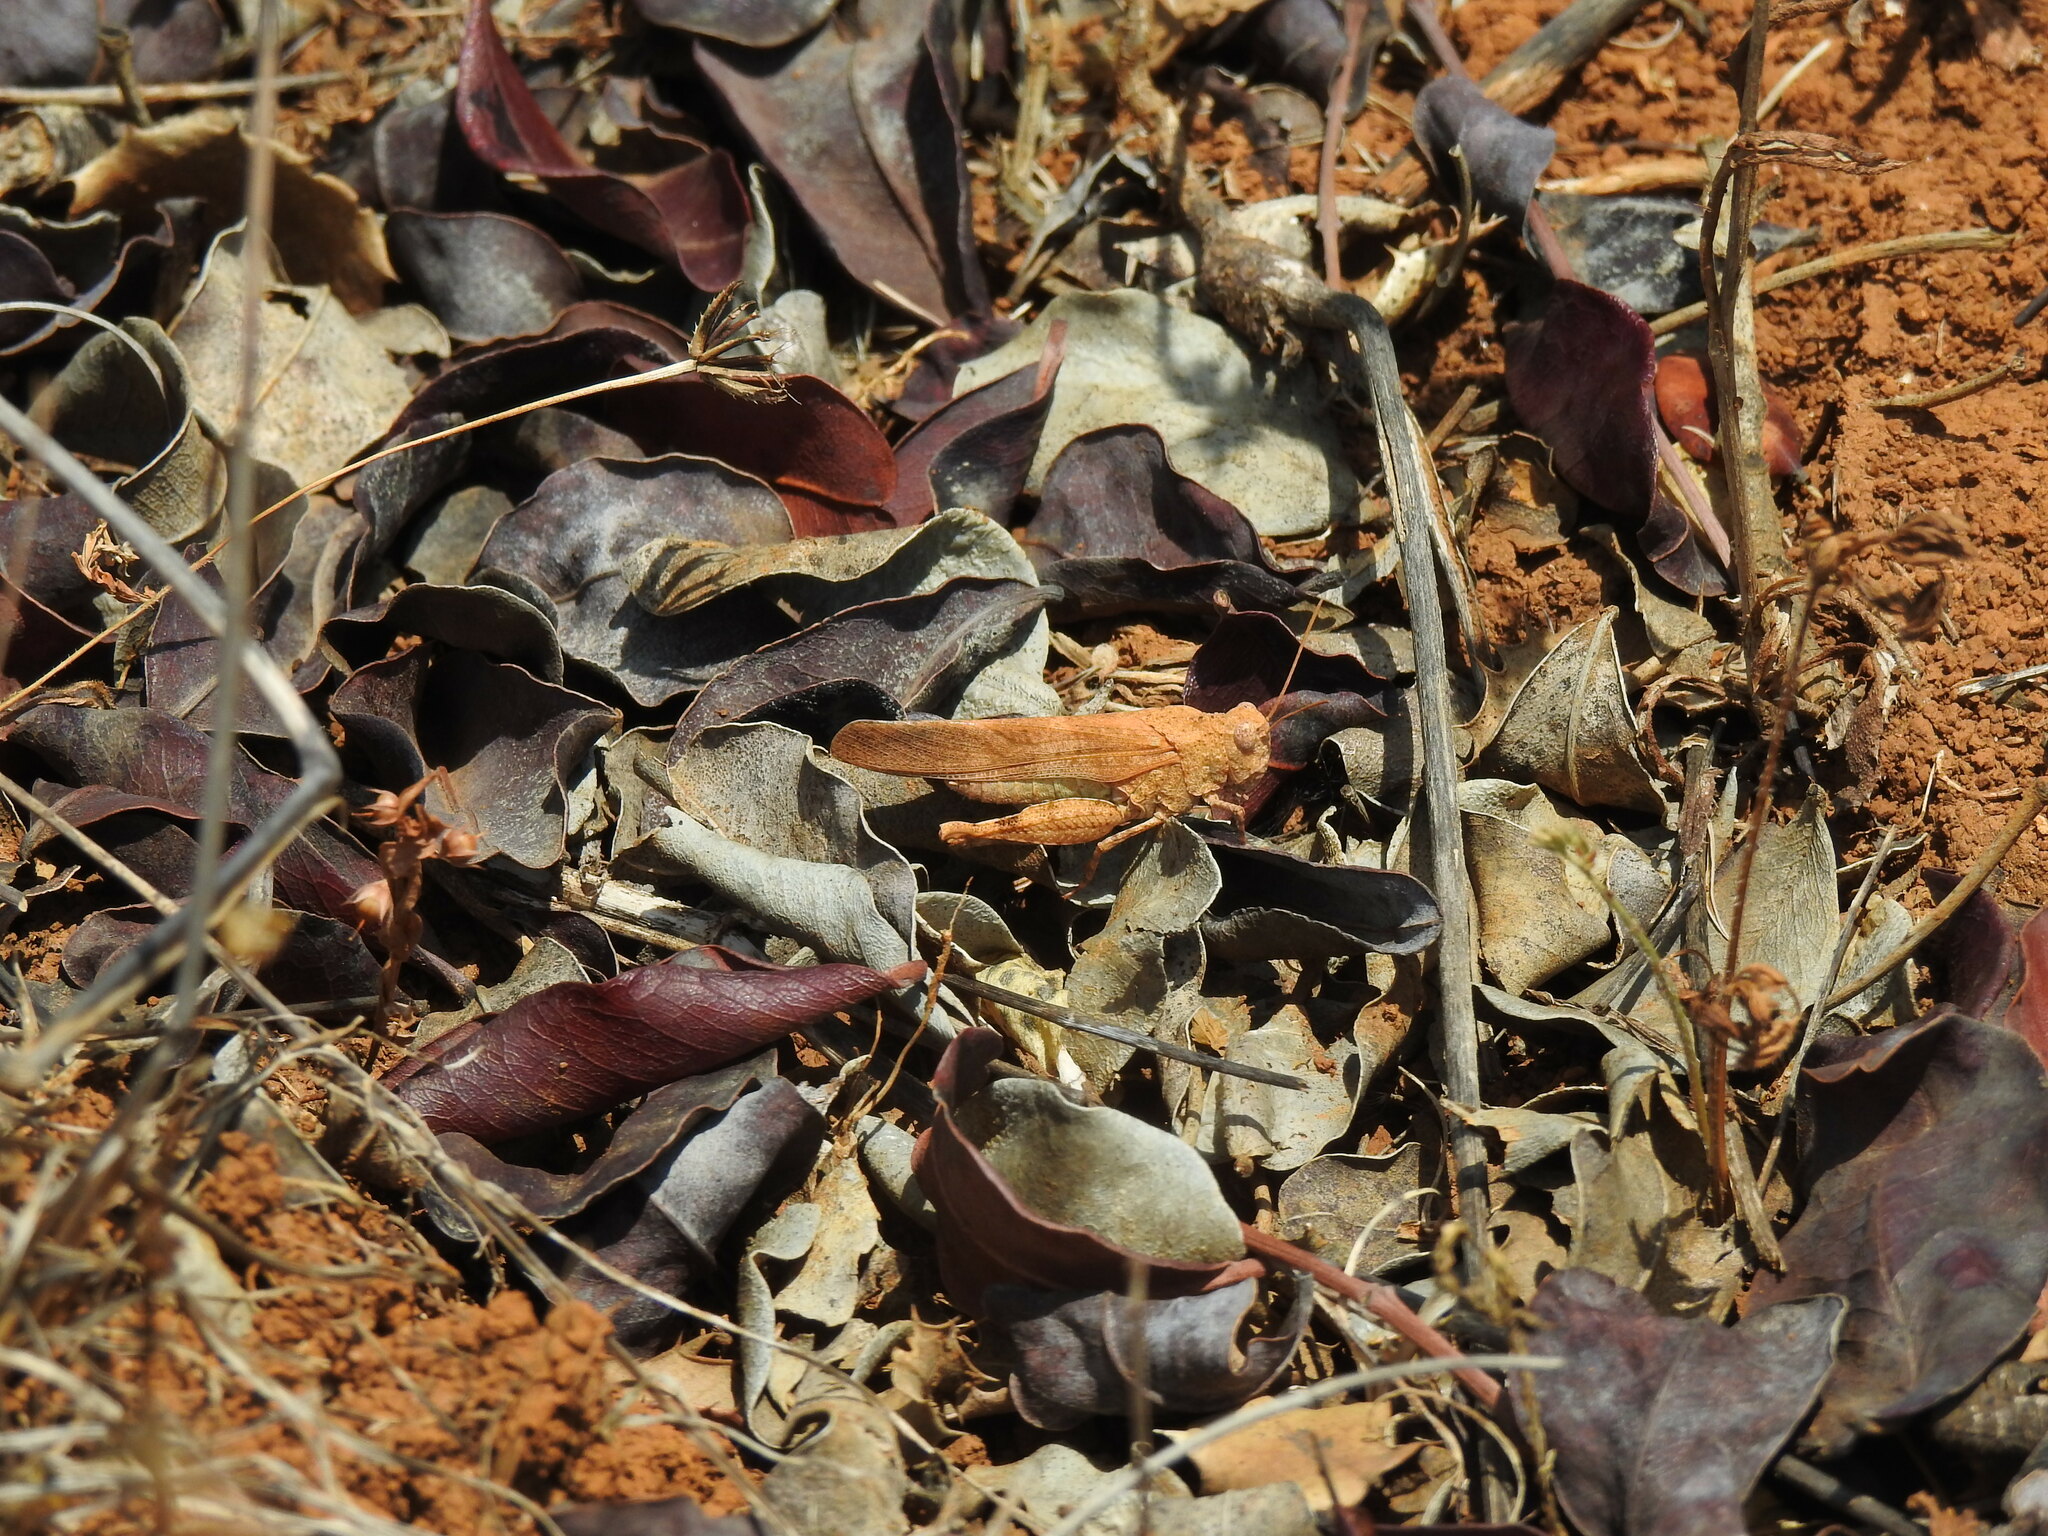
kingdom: Animalia
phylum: Arthropoda
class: Insecta
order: Orthoptera
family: Acrididae
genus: Oedipoda
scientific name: Oedipoda caerulescens
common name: Blue-winged grasshopper
